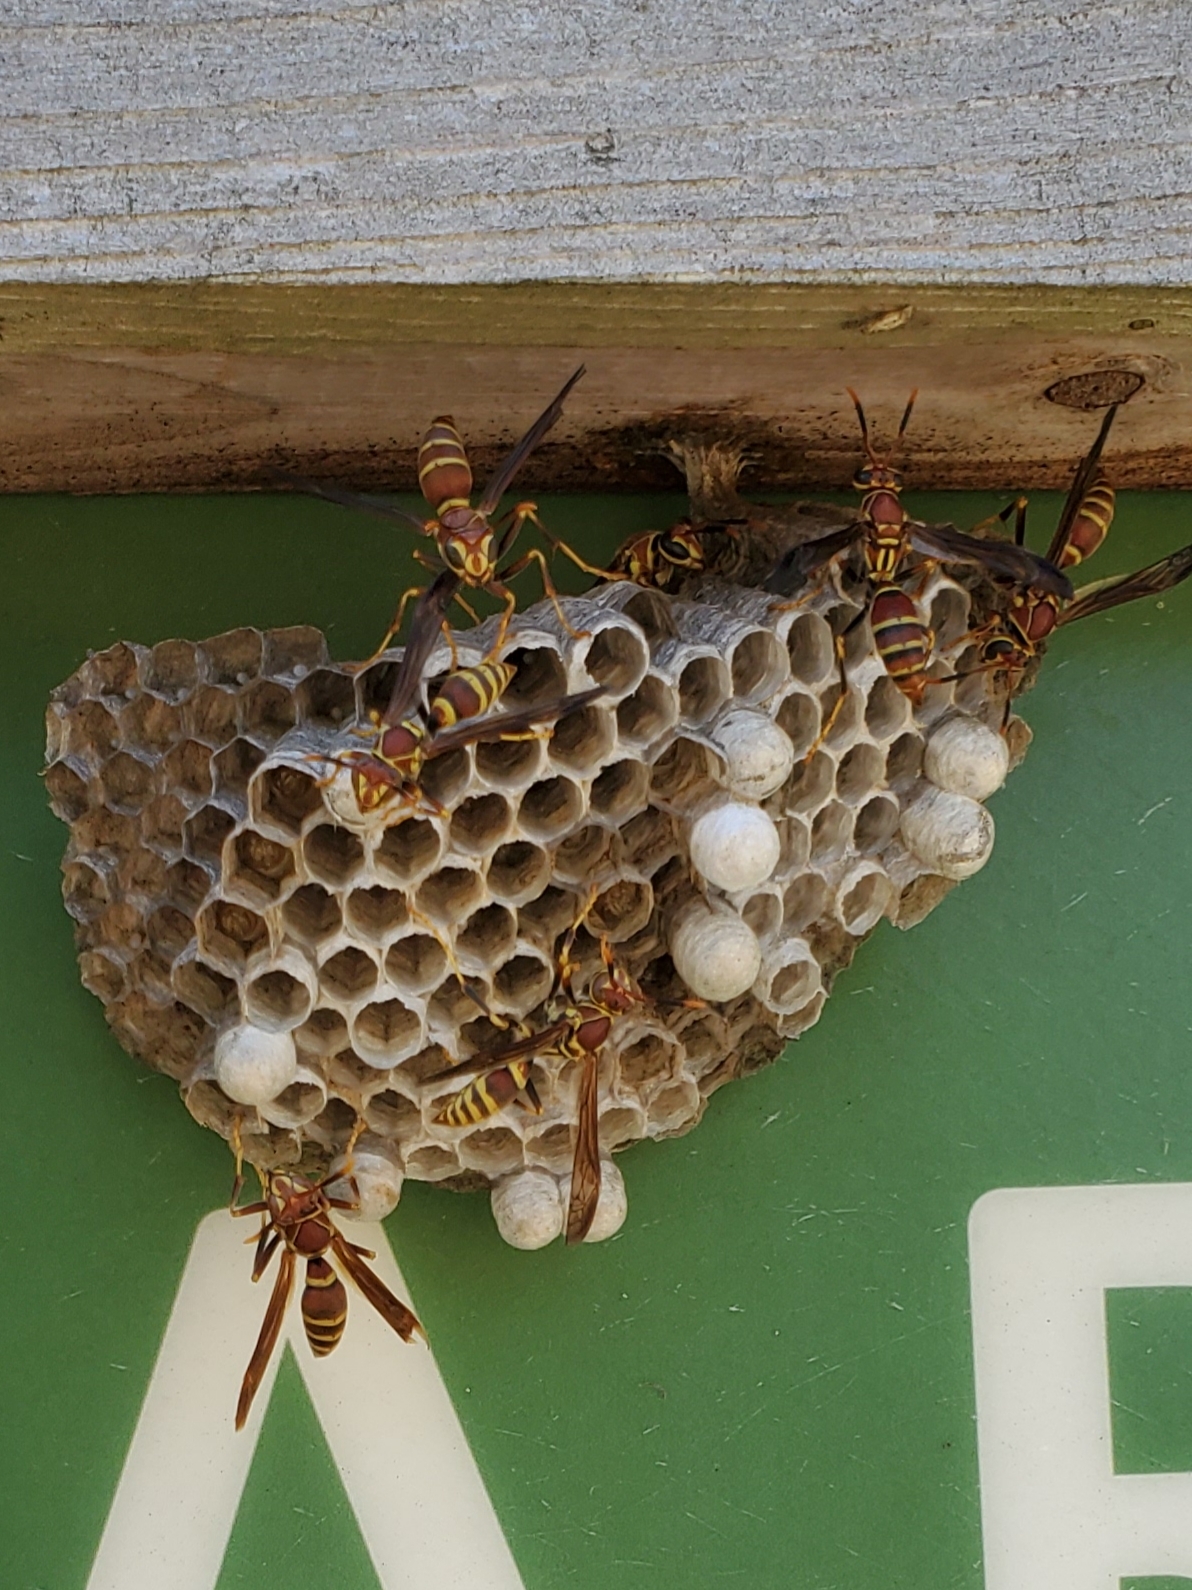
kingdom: Animalia
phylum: Arthropoda
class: Insecta
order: Hymenoptera
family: Eumenidae
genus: Polistes
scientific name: Polistes exclamans
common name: Paper wasp
